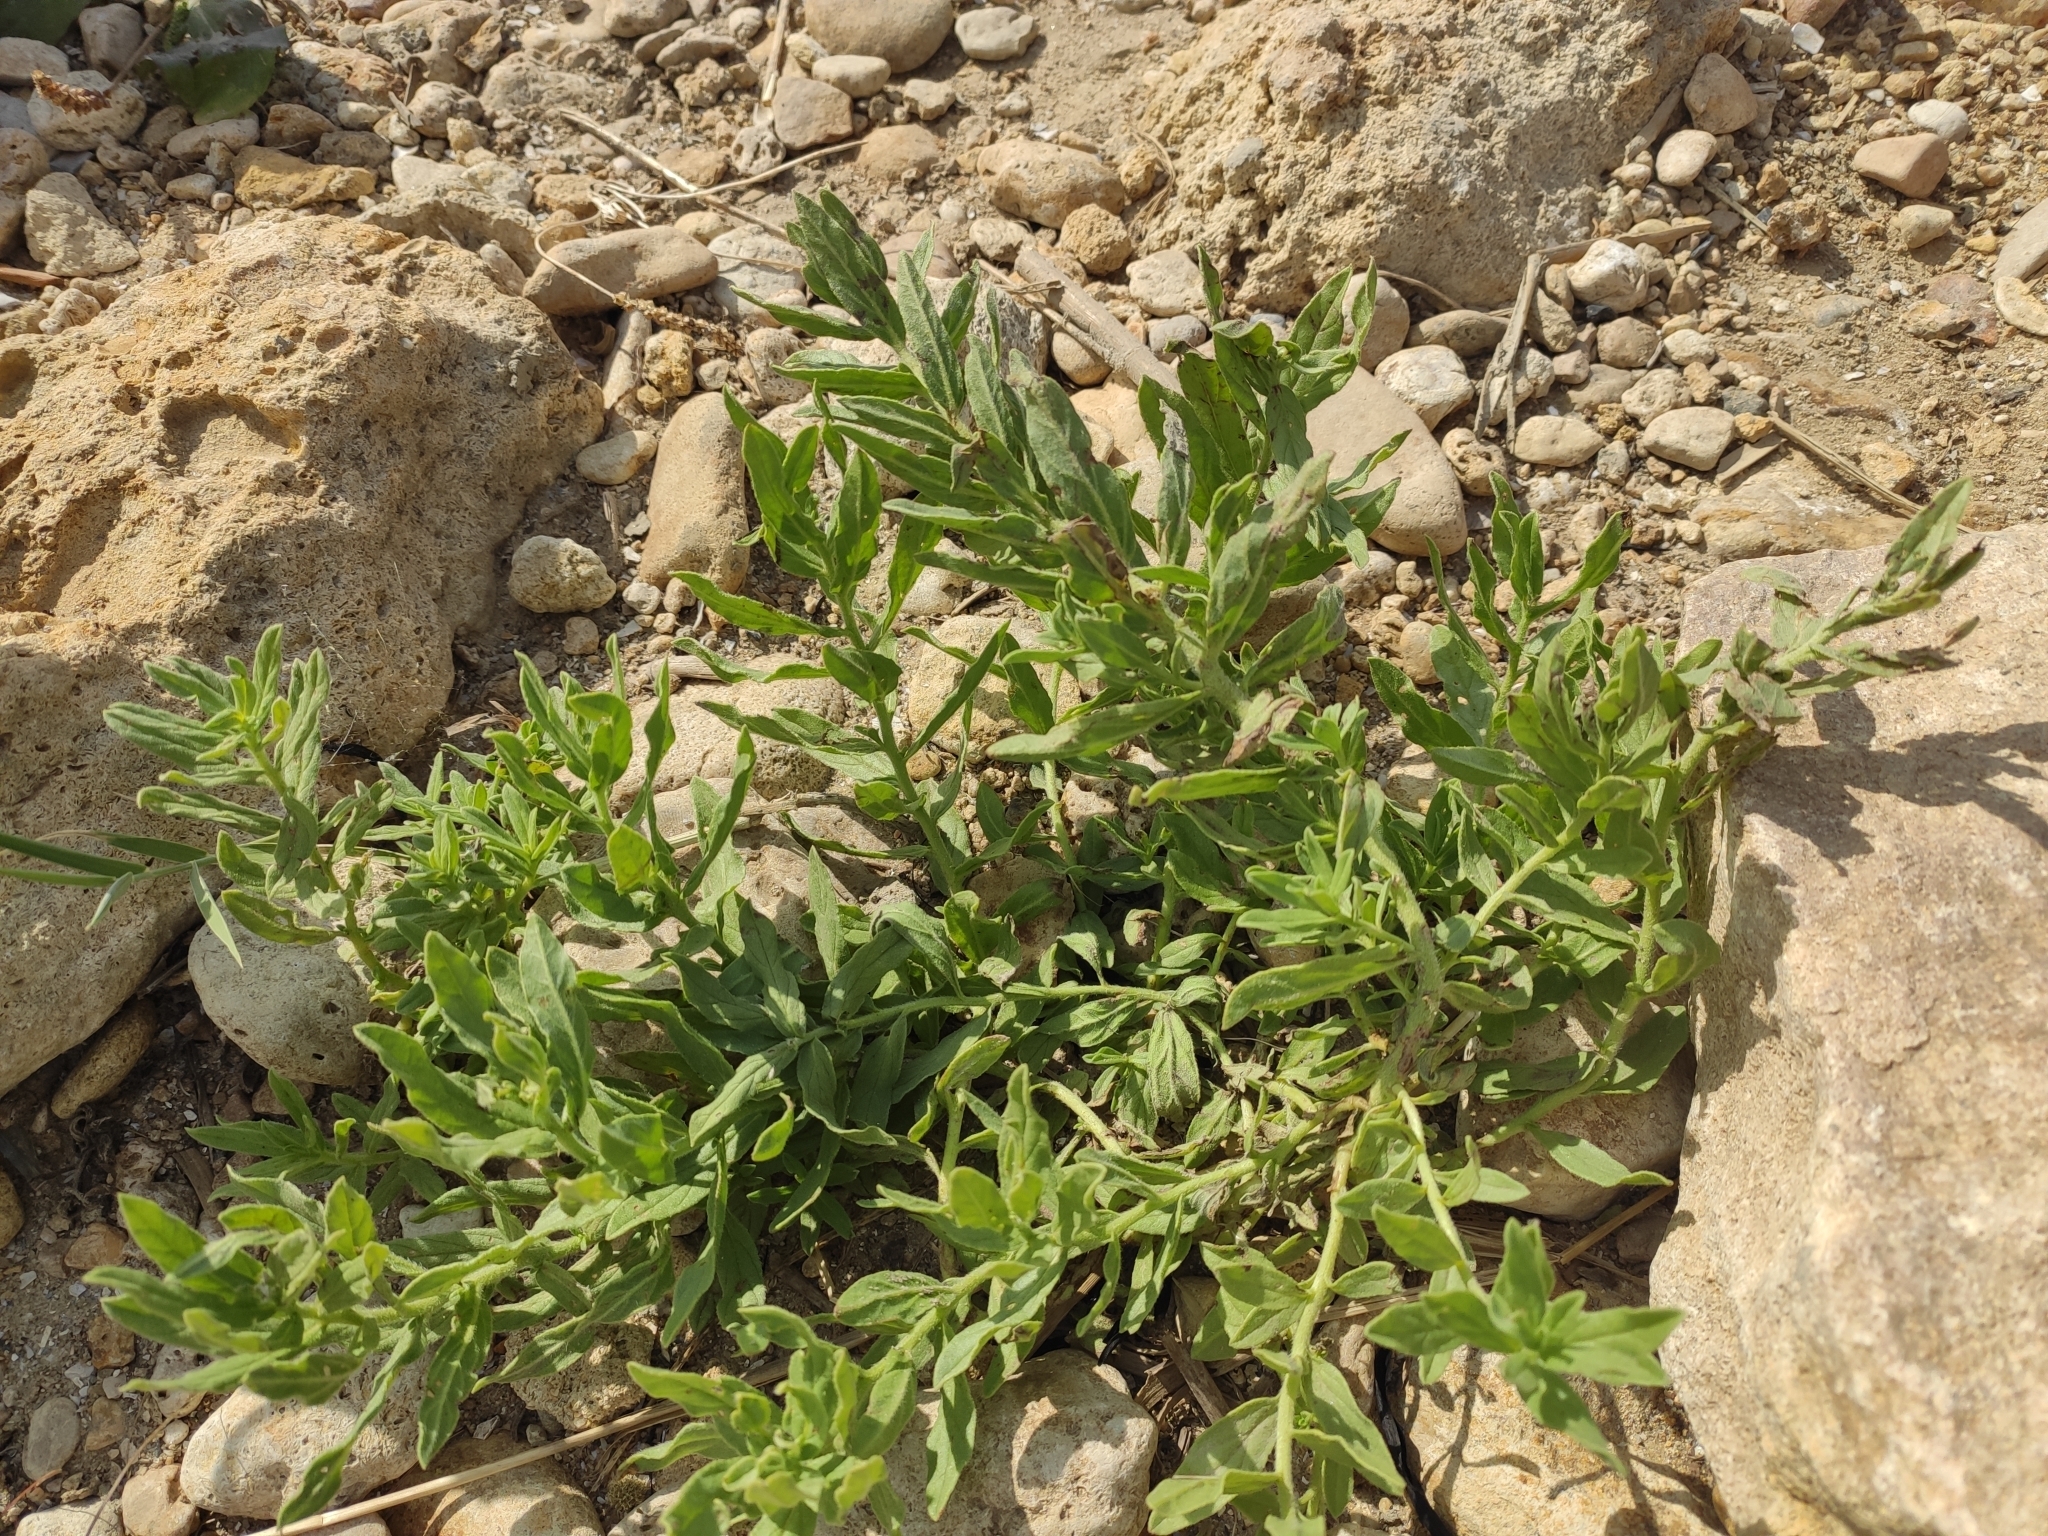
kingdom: Plantae
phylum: Tracheophyta
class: Magnoliopsida
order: Boraginales
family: Heliotropiaceae
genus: Tournefortia
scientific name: Tournefortia sibirica
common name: Siberian sea rosemary
